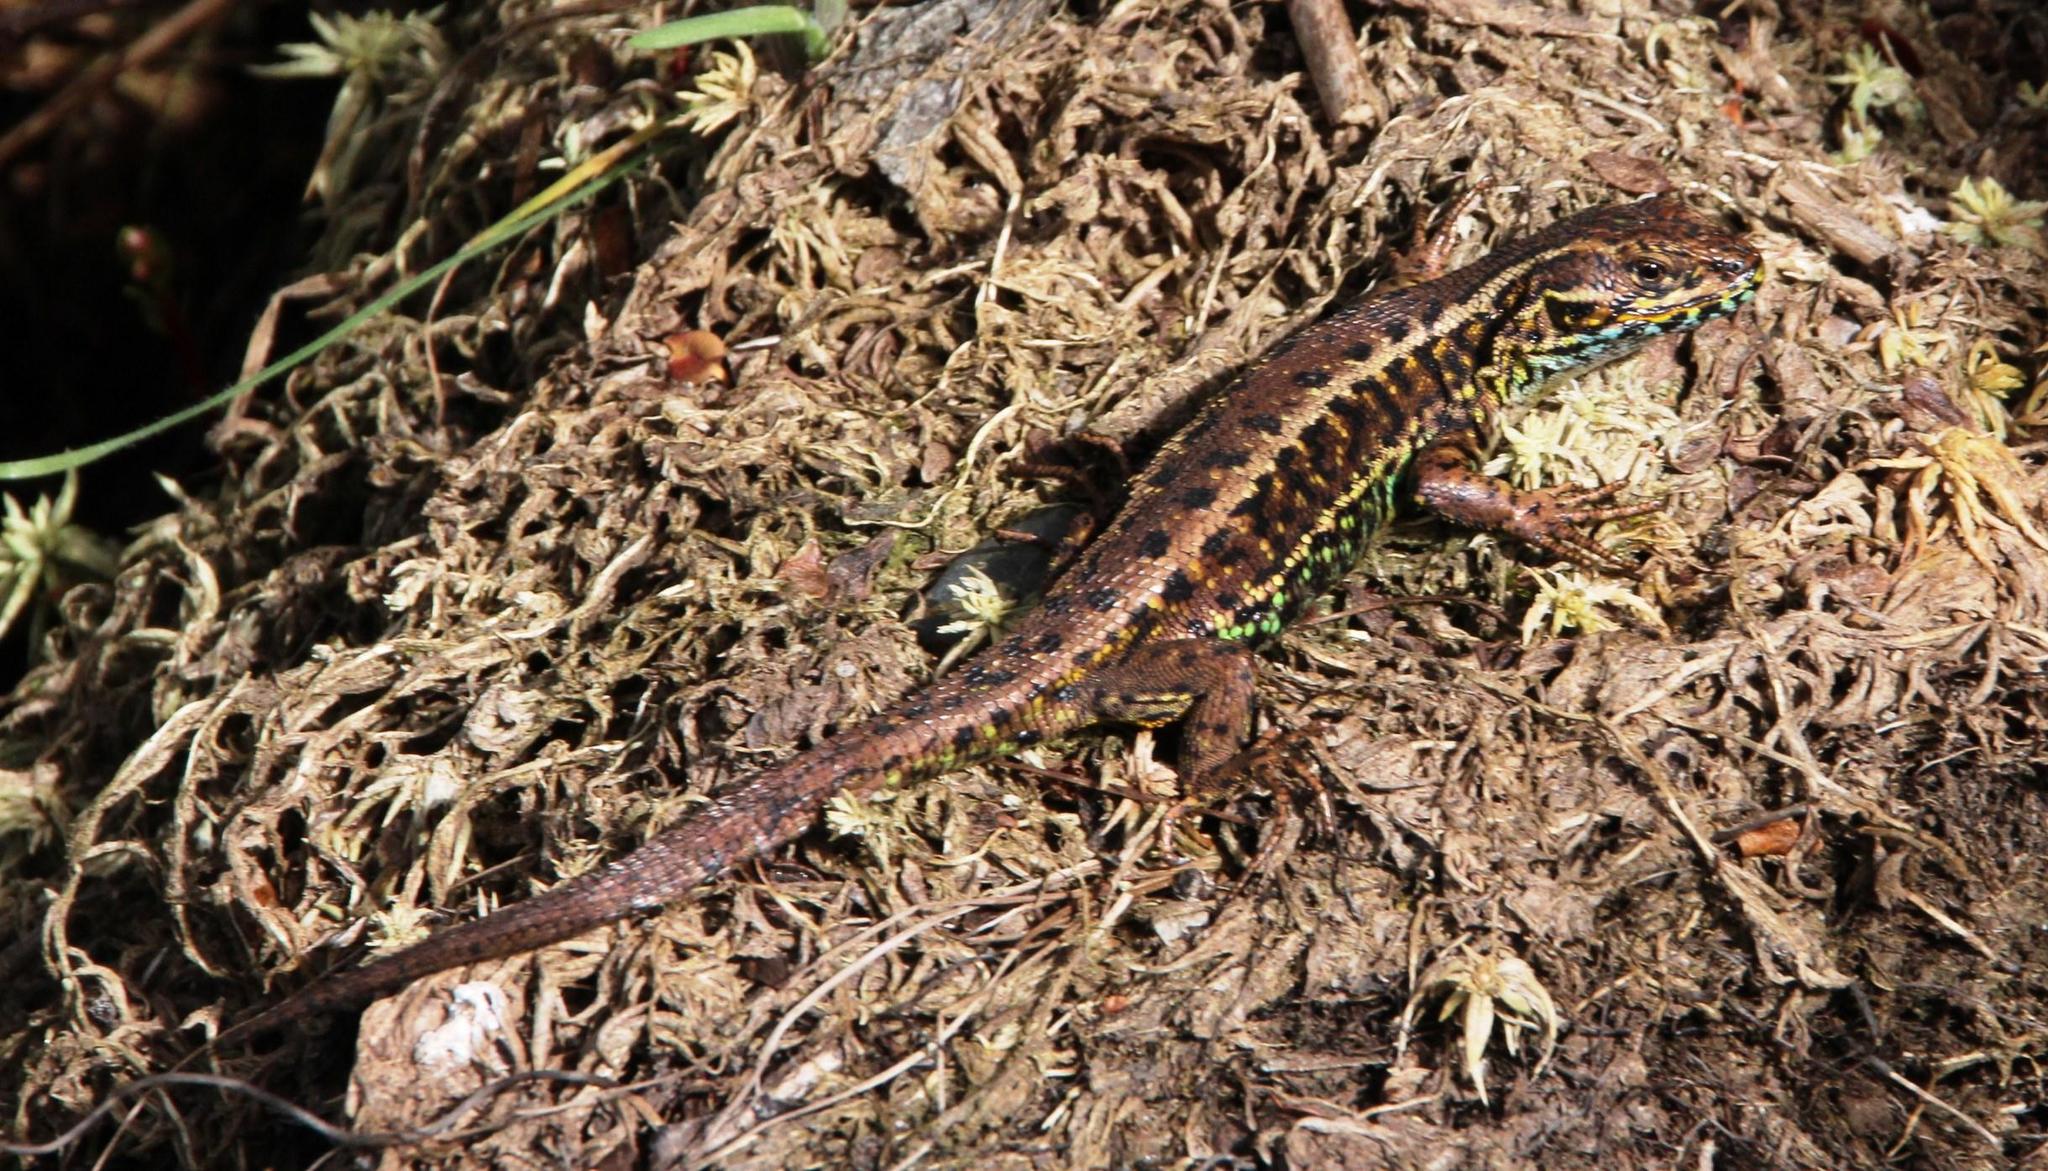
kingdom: Animalia
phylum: Chordata
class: Squamata
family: Liolaemidae
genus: Liolaemus
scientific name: Liolaemus pictus
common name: Painted tree iguana
